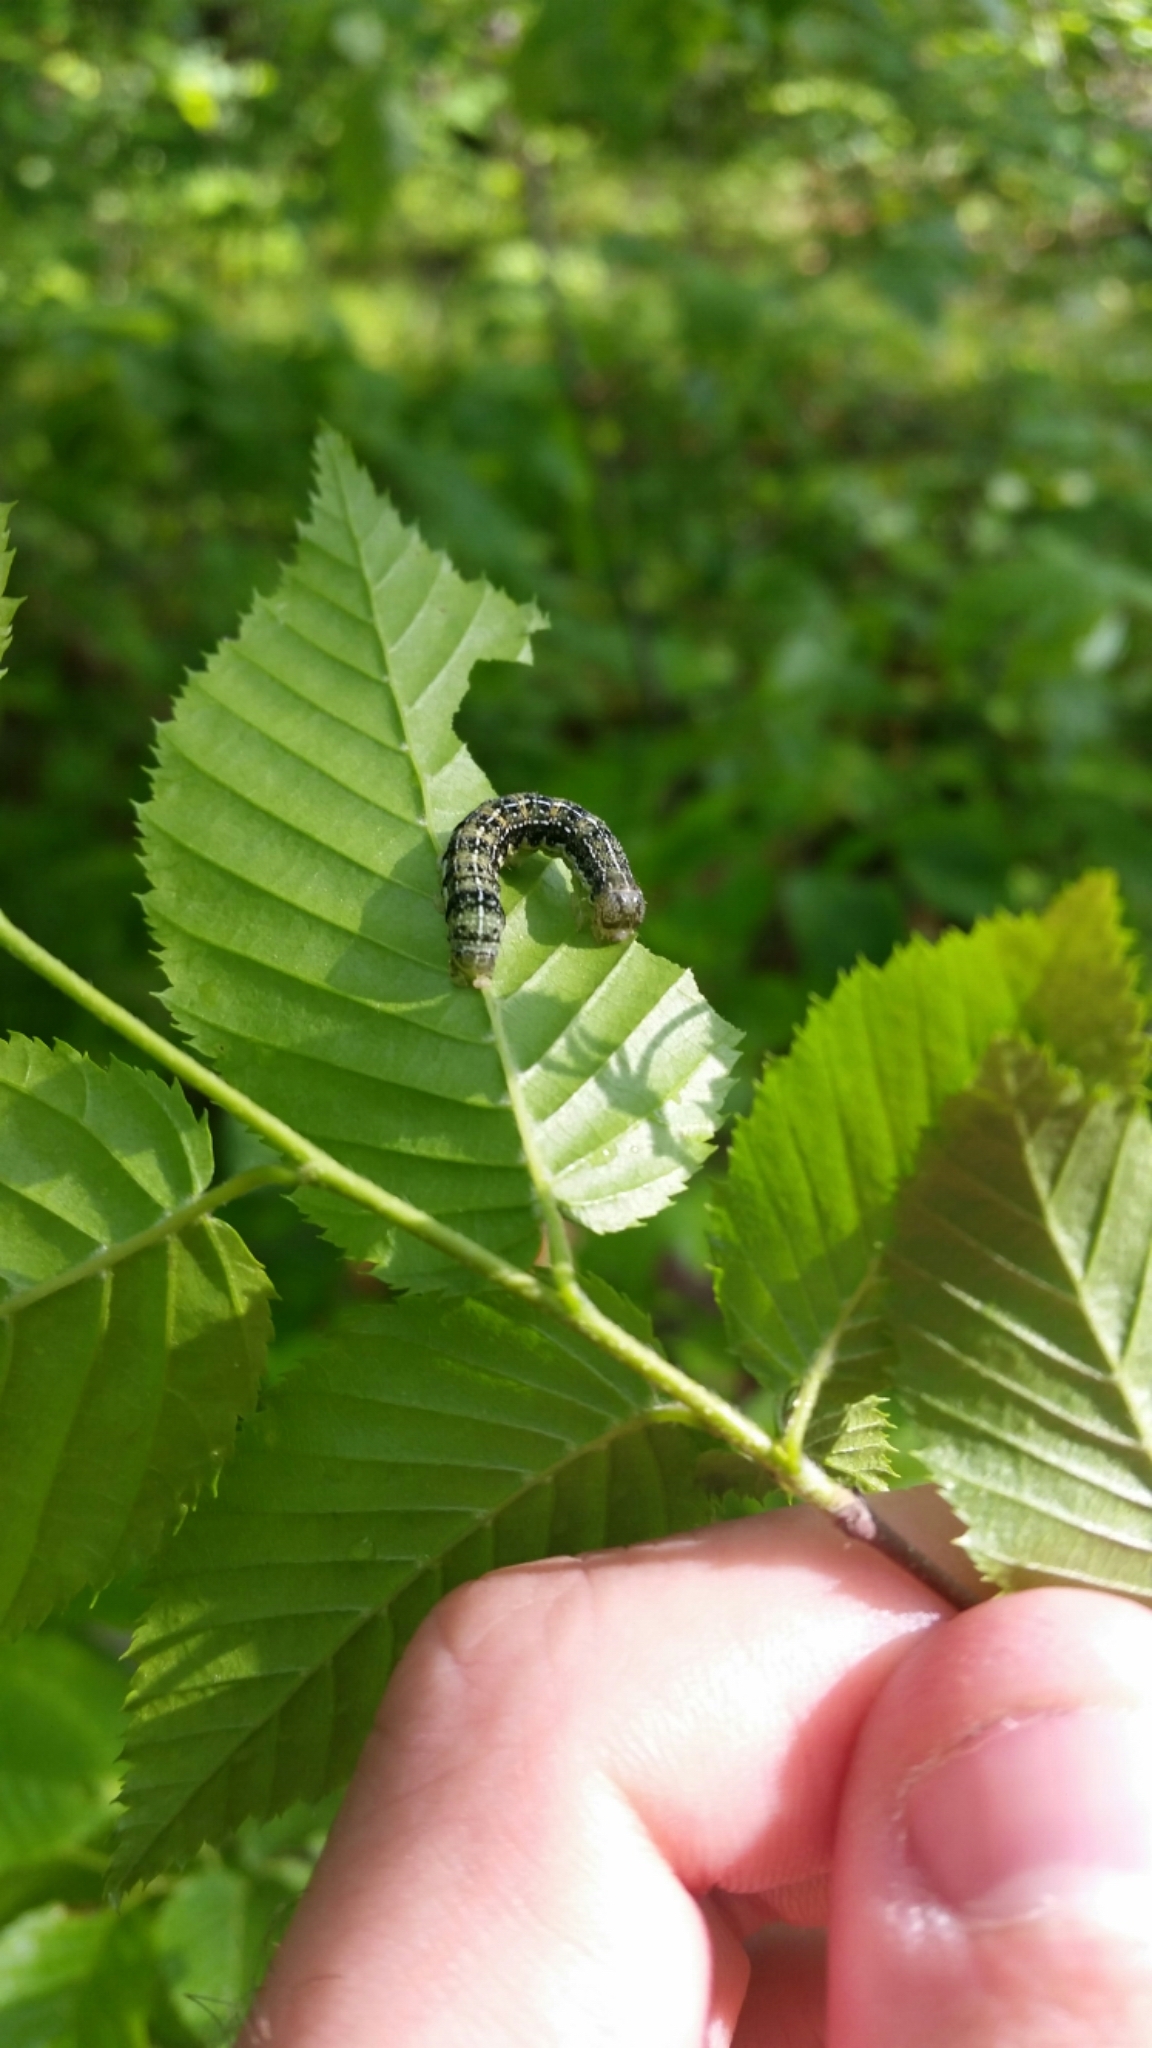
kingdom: Animalia
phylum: Arthropoda
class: Insecta
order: Lepidoptera
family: Noctuidae
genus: Orthosia
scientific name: Orthosia rubescens
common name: Ruby quaker
